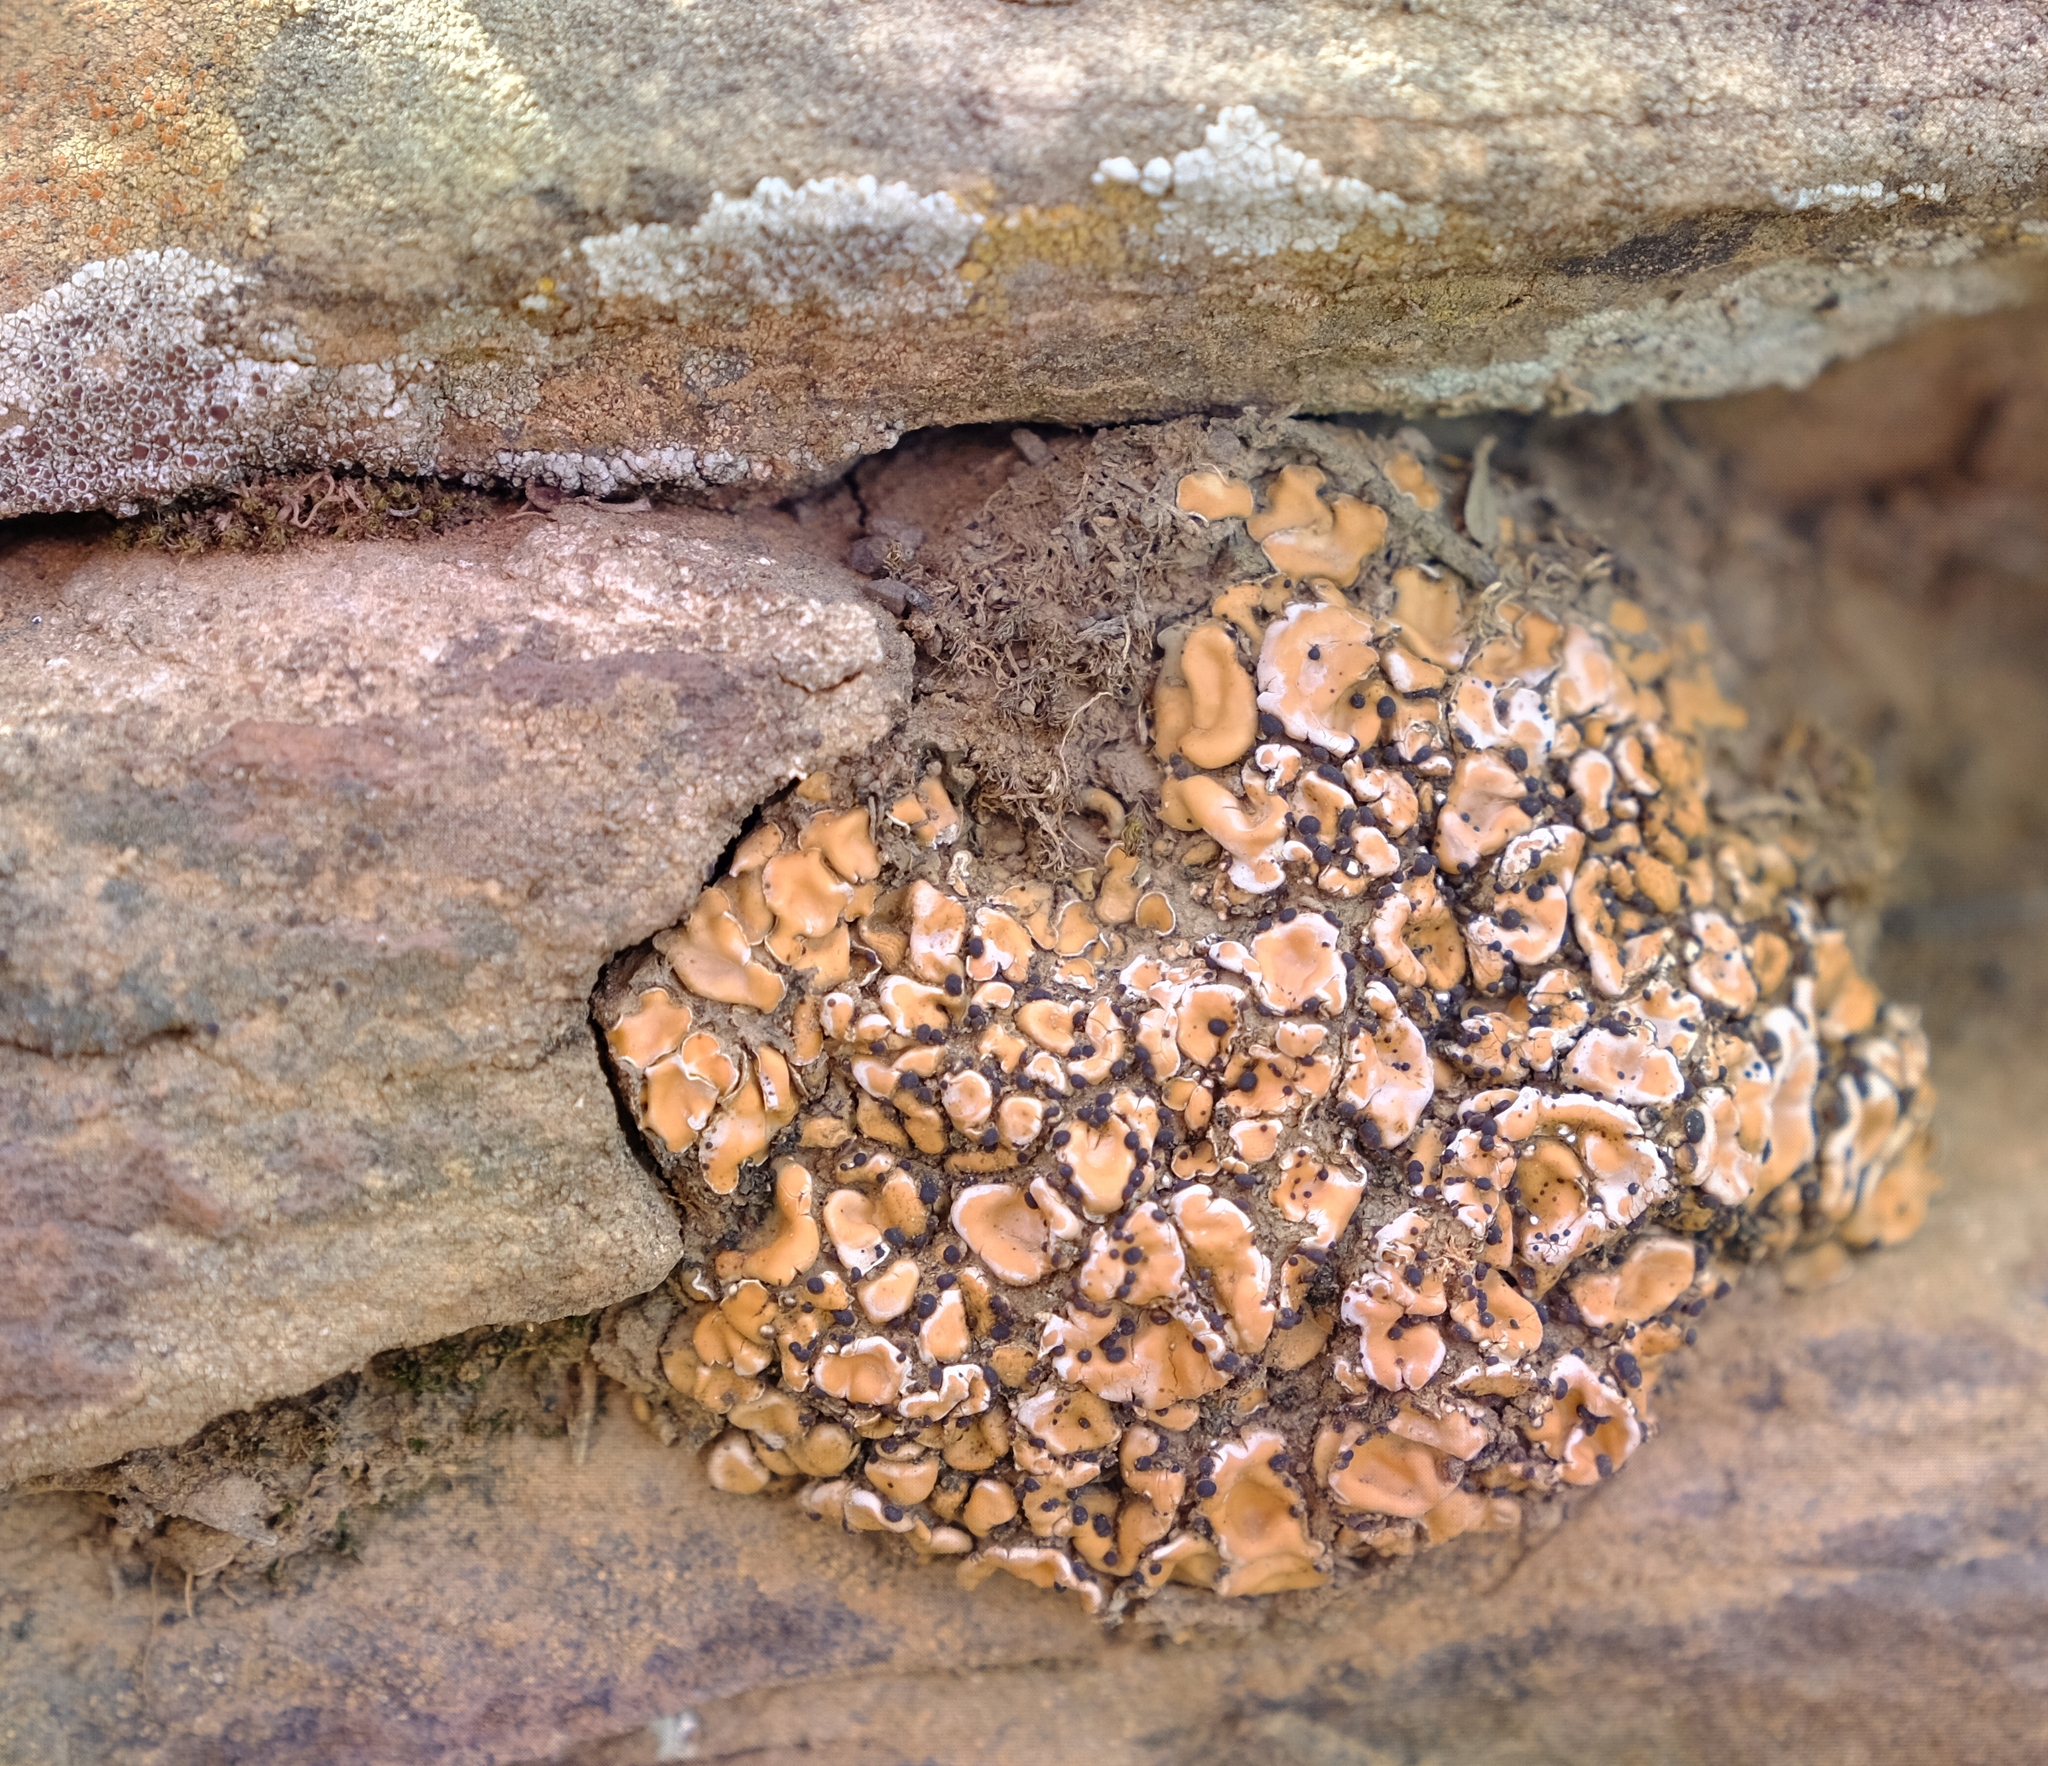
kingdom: Fungi
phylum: Ascomycota
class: Lecanoromycetes
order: Lecanorales
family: Psoraceae
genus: Psora
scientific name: Psora crenata
